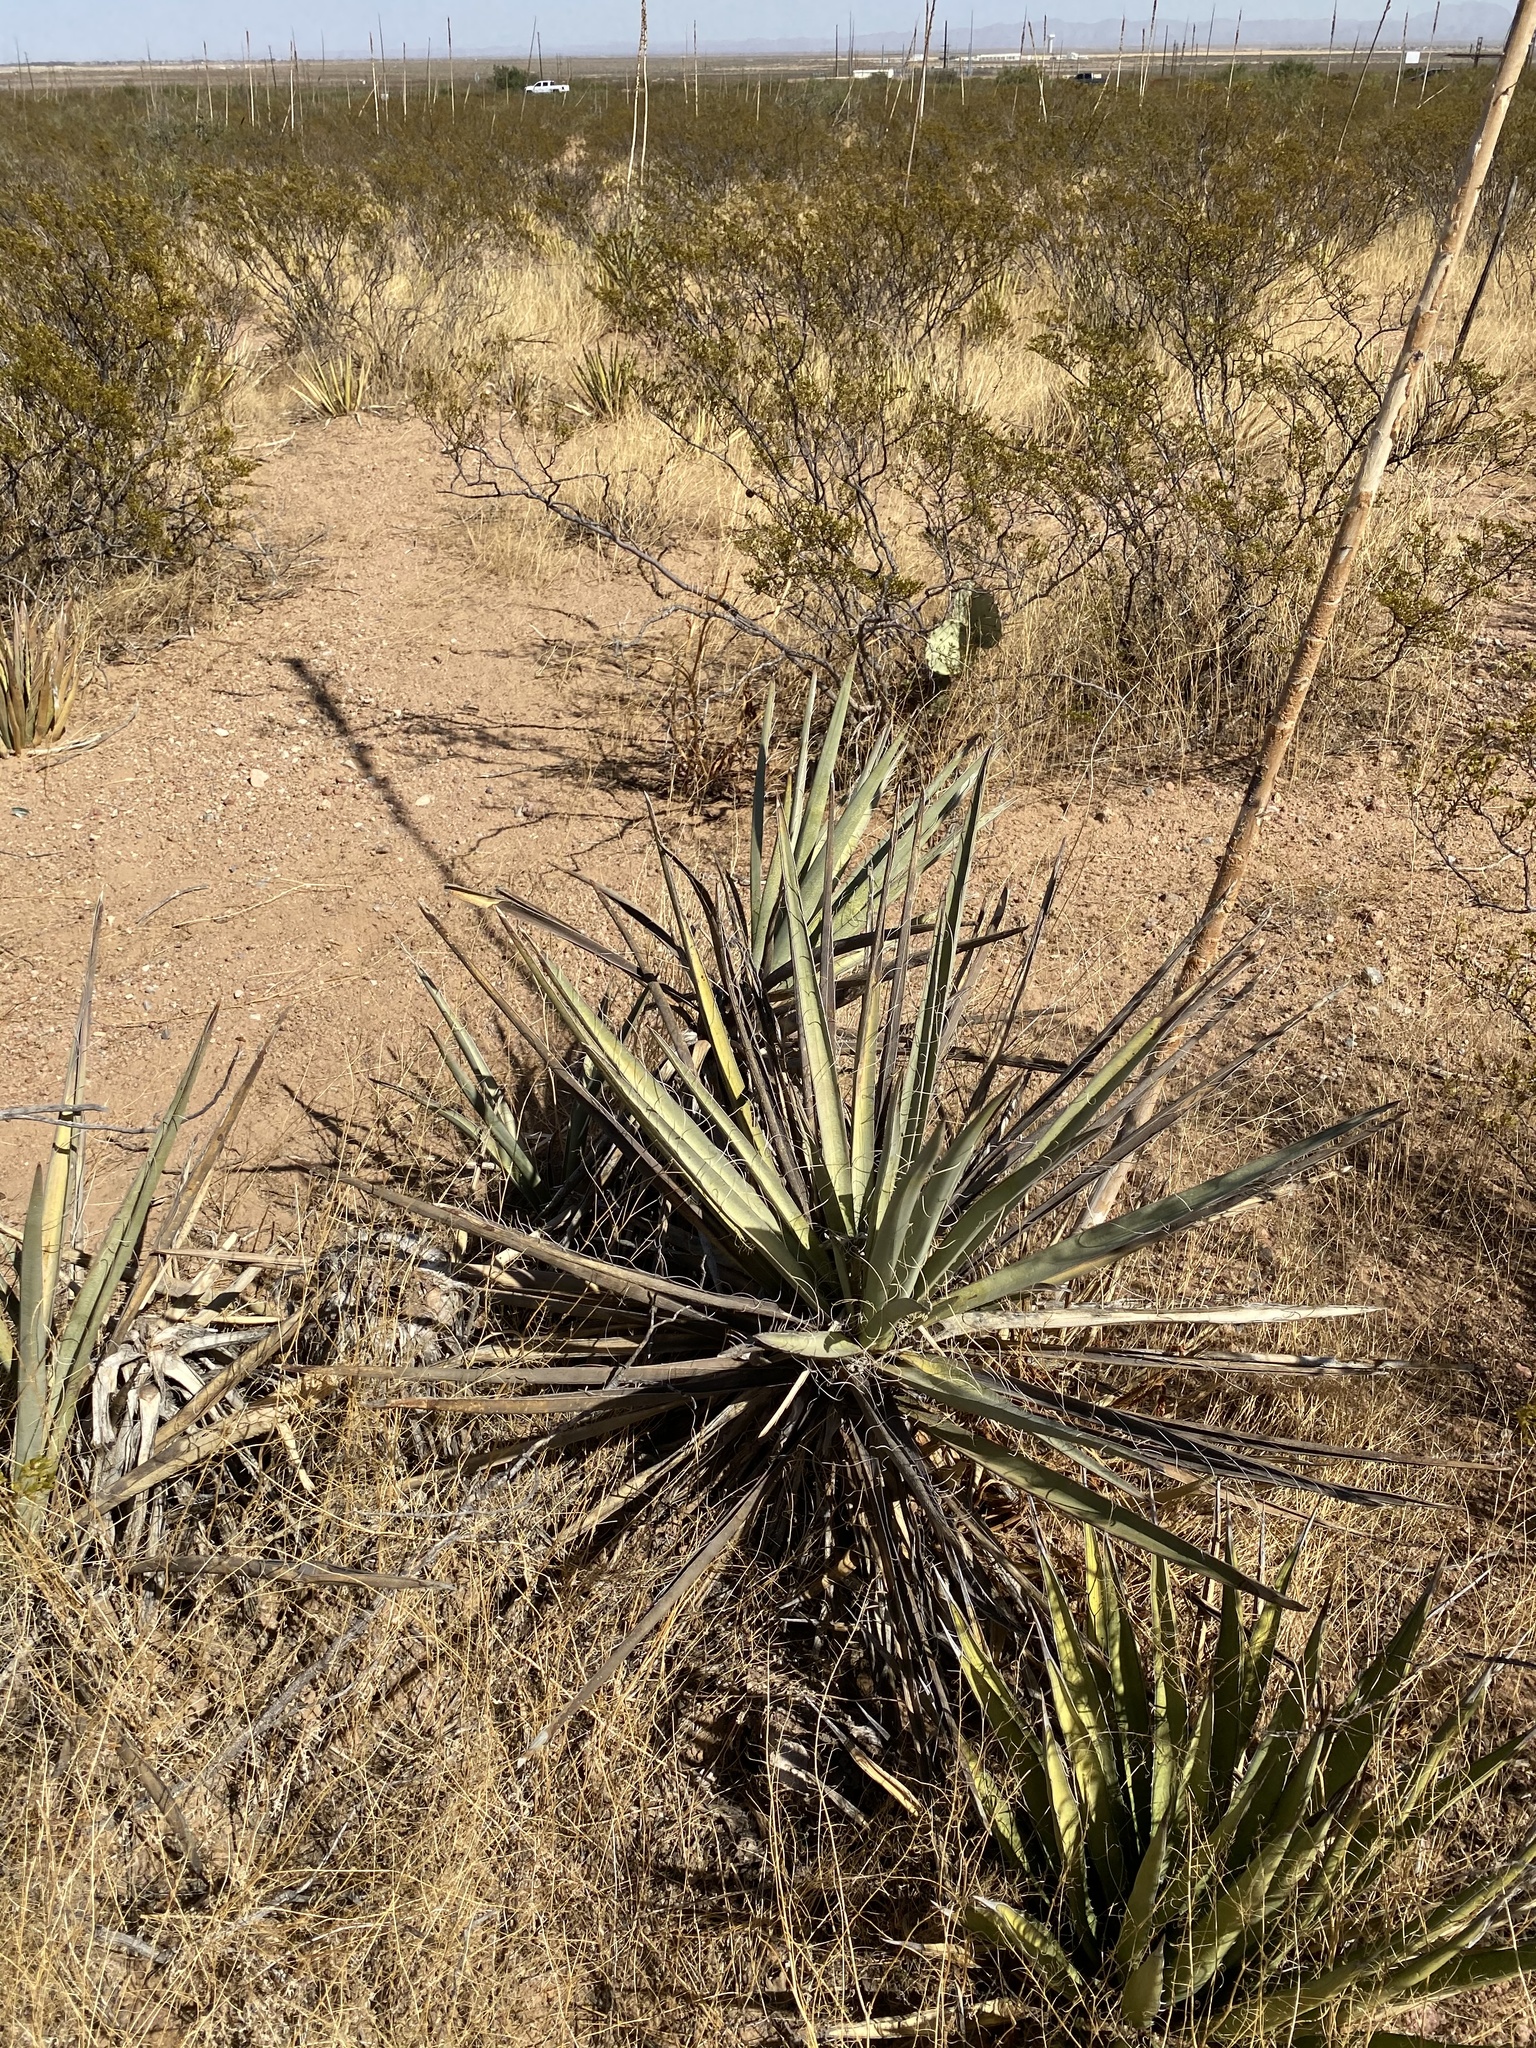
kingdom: Plantae
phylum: Tracheophyta
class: Liliopsida
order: Asparagales
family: Asparagaceae
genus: Yucca
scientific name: Yucca baccata
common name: Banana yucca
